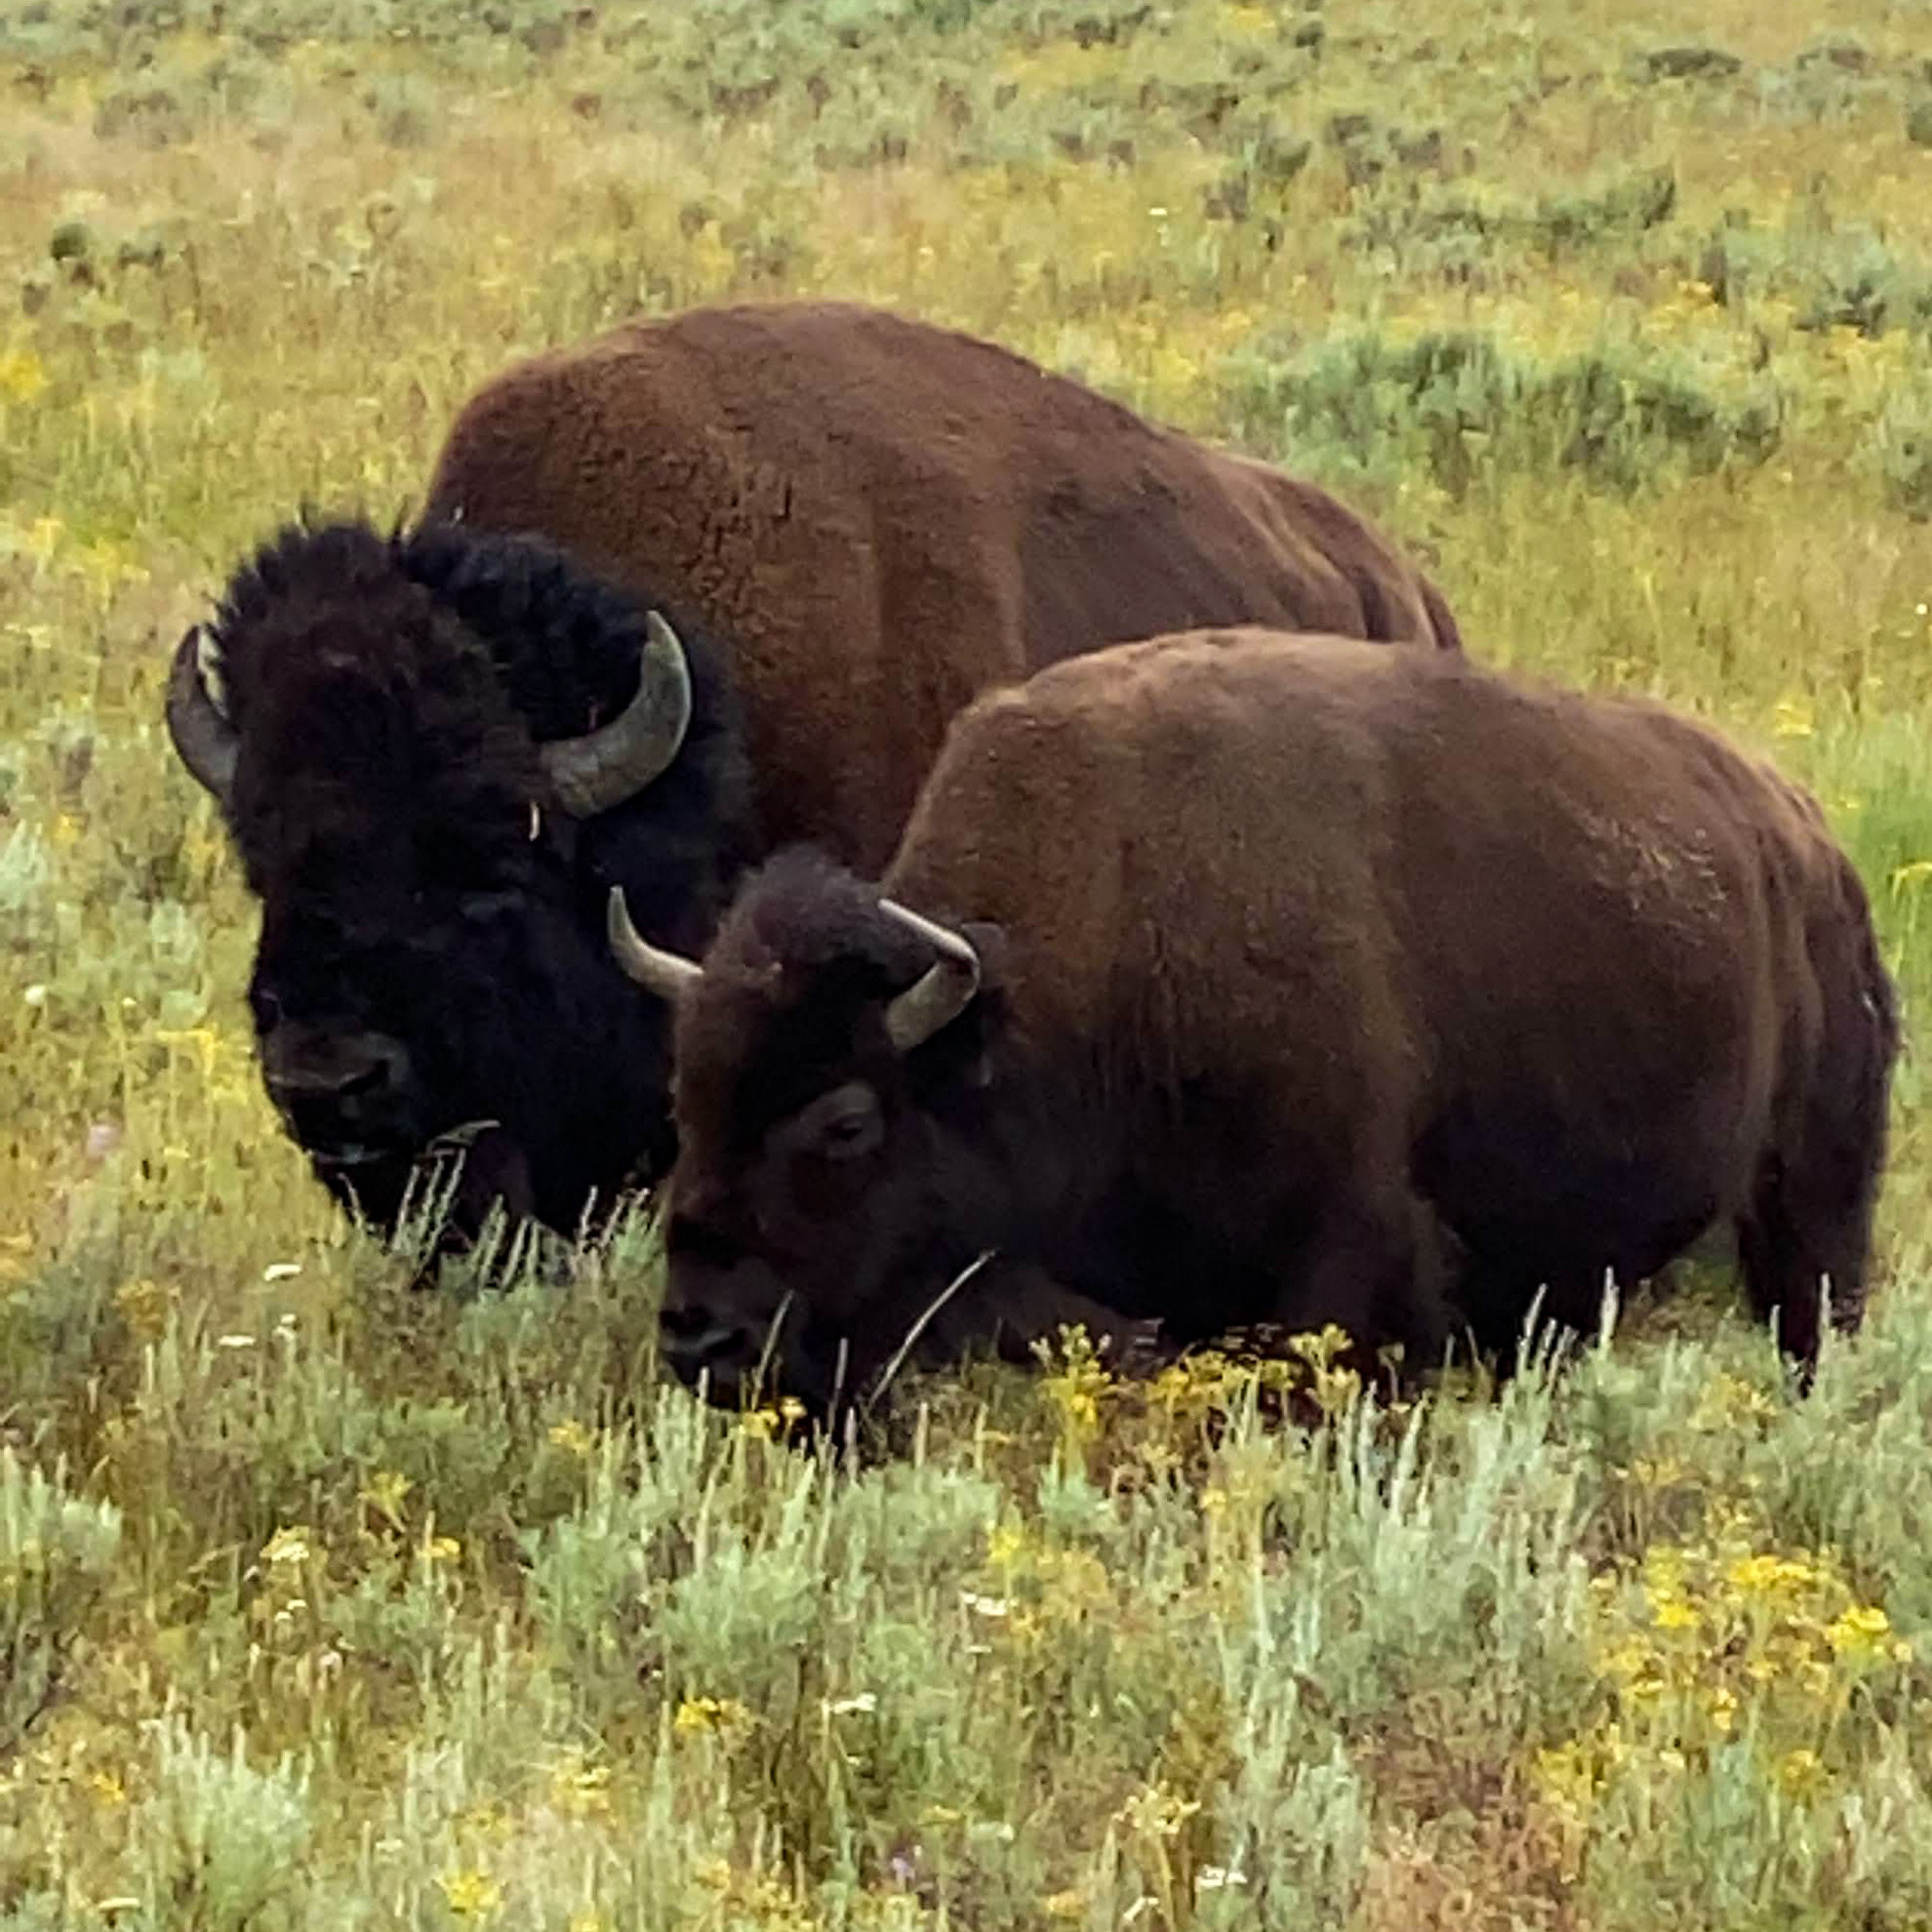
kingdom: Animalia
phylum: Chordata
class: Mammalia
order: Artiodactyla
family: Bovidae
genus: Bison
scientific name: Bison bison
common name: American bison
